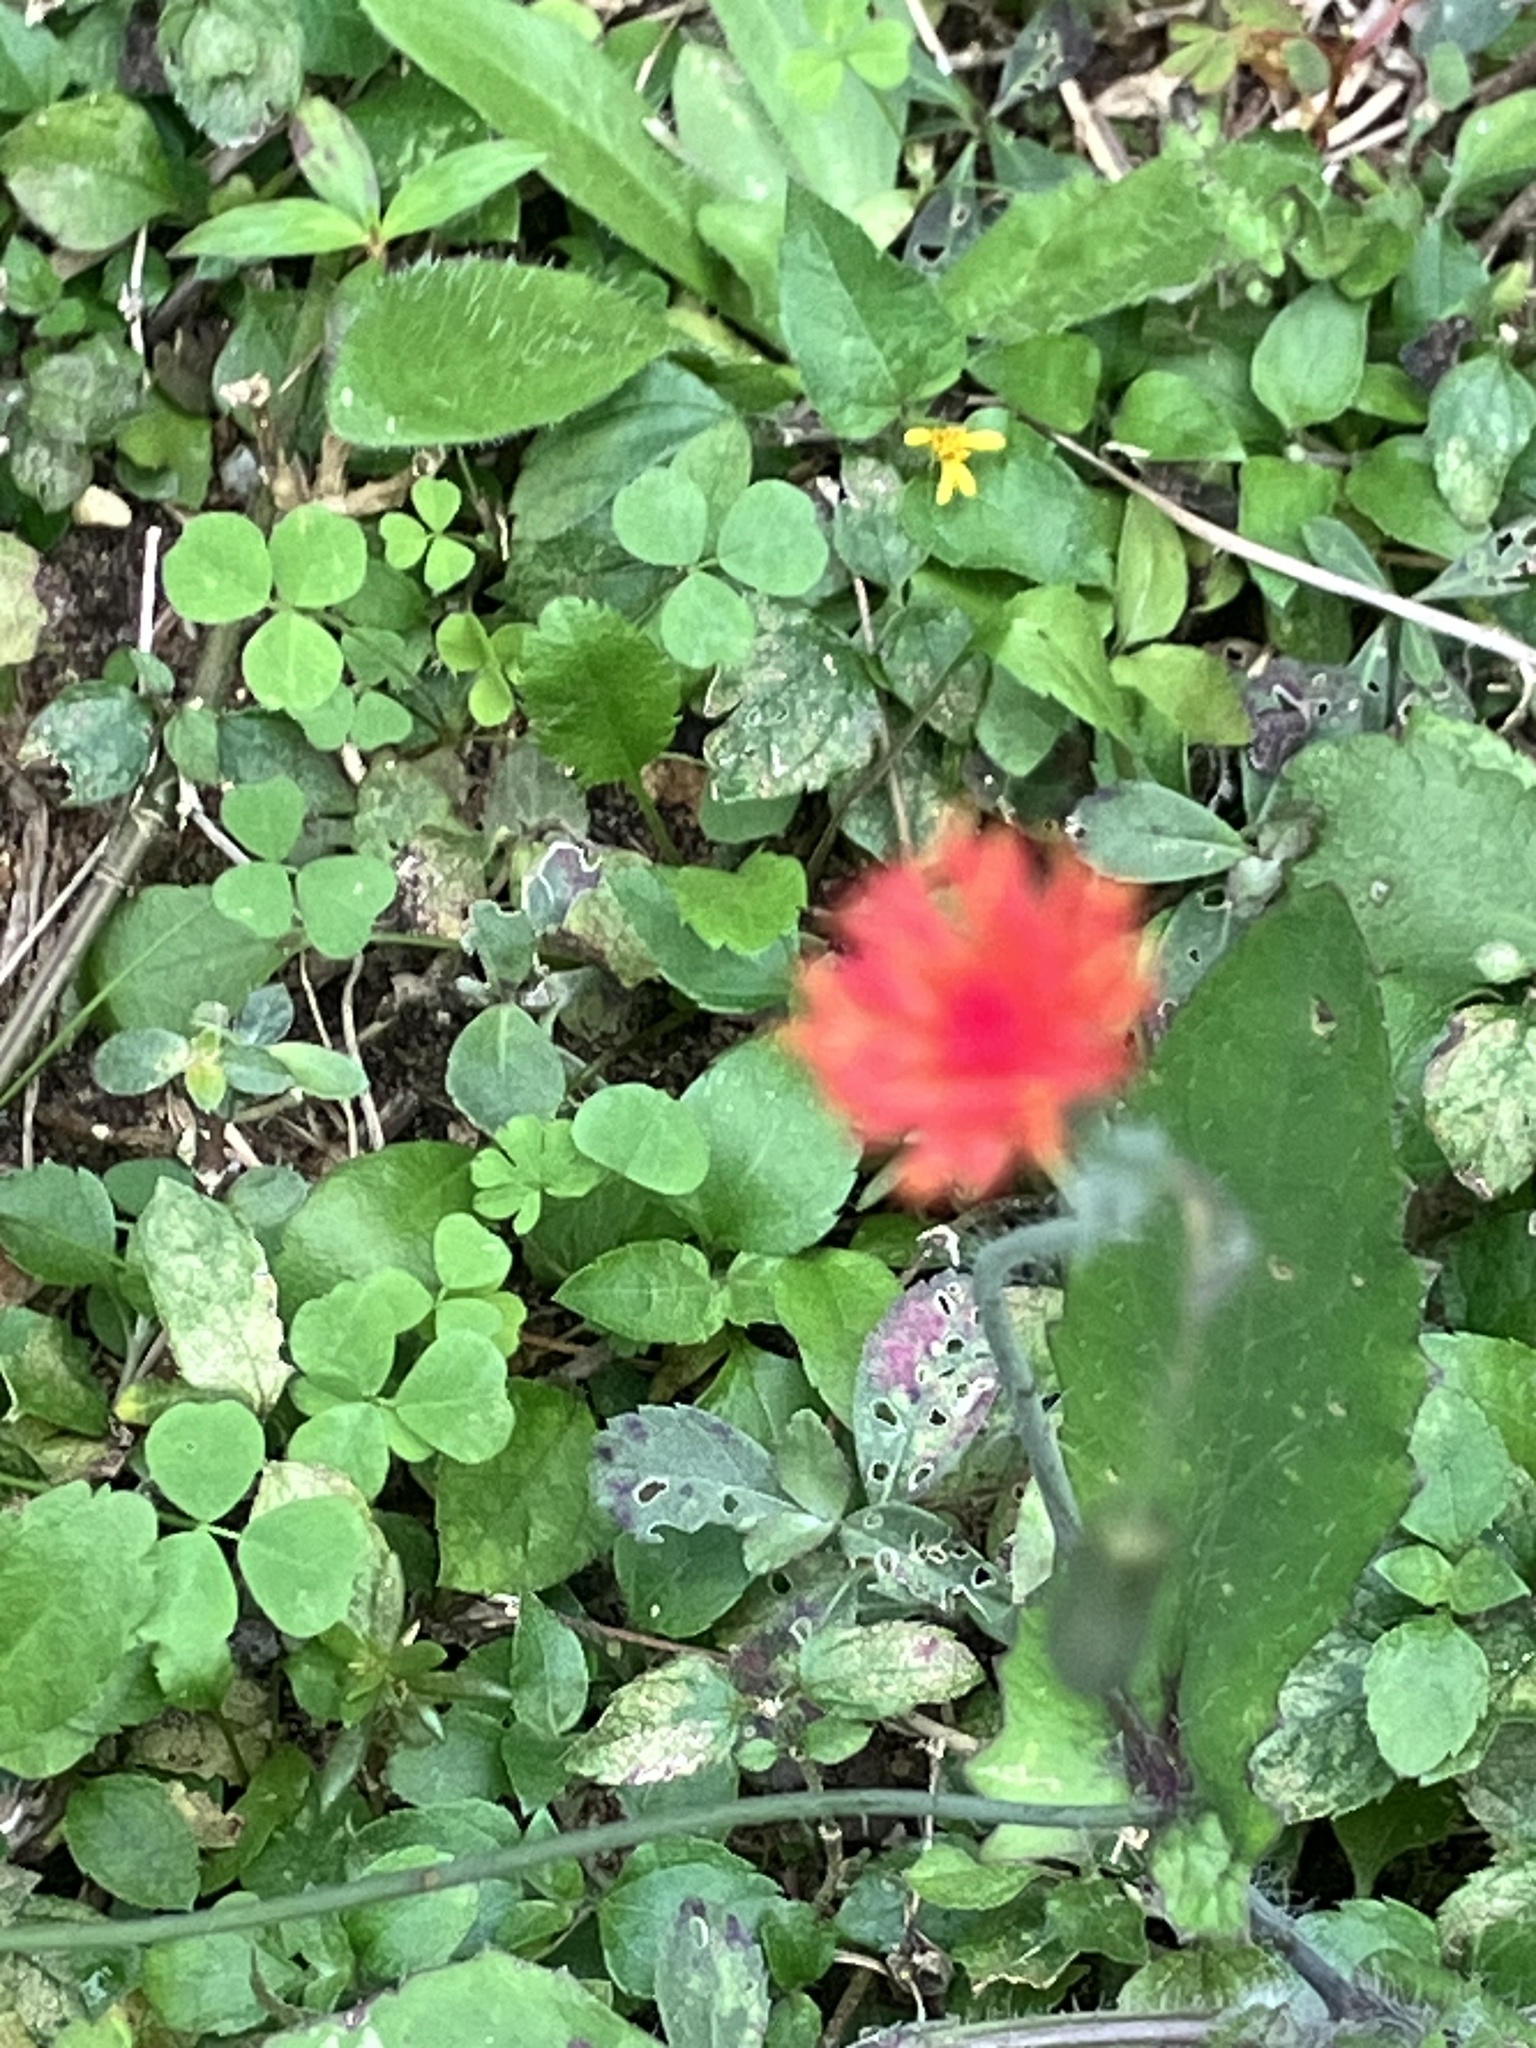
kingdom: Plantae
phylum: Tracheophyta
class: Magnoliopsida
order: Asterales
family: Asteraceae
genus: Emilia
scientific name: Emilia fosbergii
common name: Florida tasselflower
